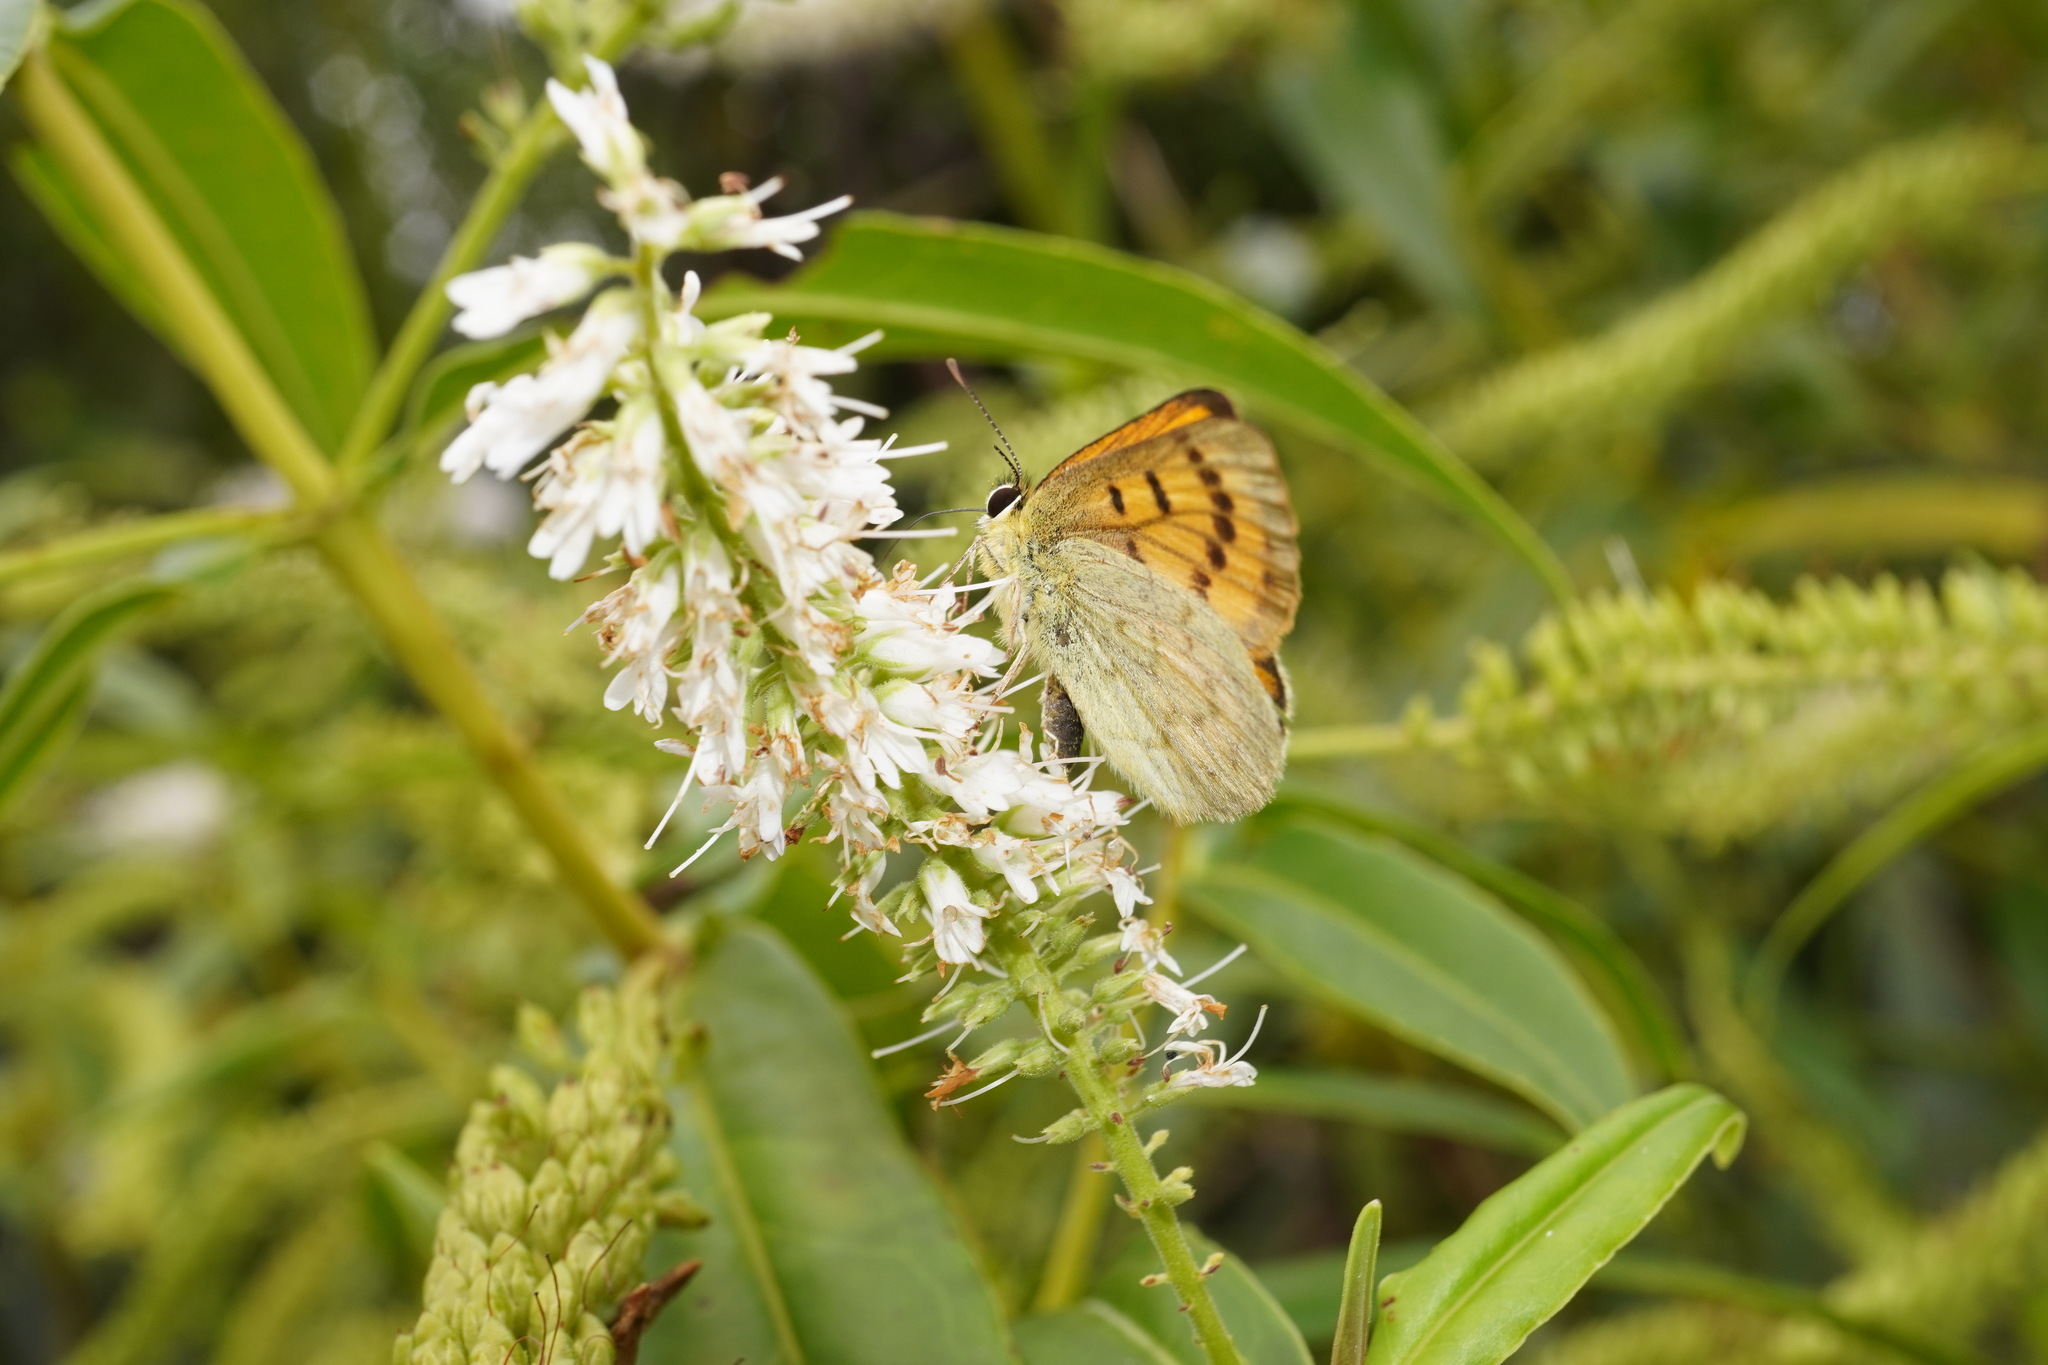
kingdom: Animalia
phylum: Arthropoda
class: Insecta
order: Lepidoptera
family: Lycaenidae
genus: Lycaena
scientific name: Lycaena salustius
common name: North island coastal copper
